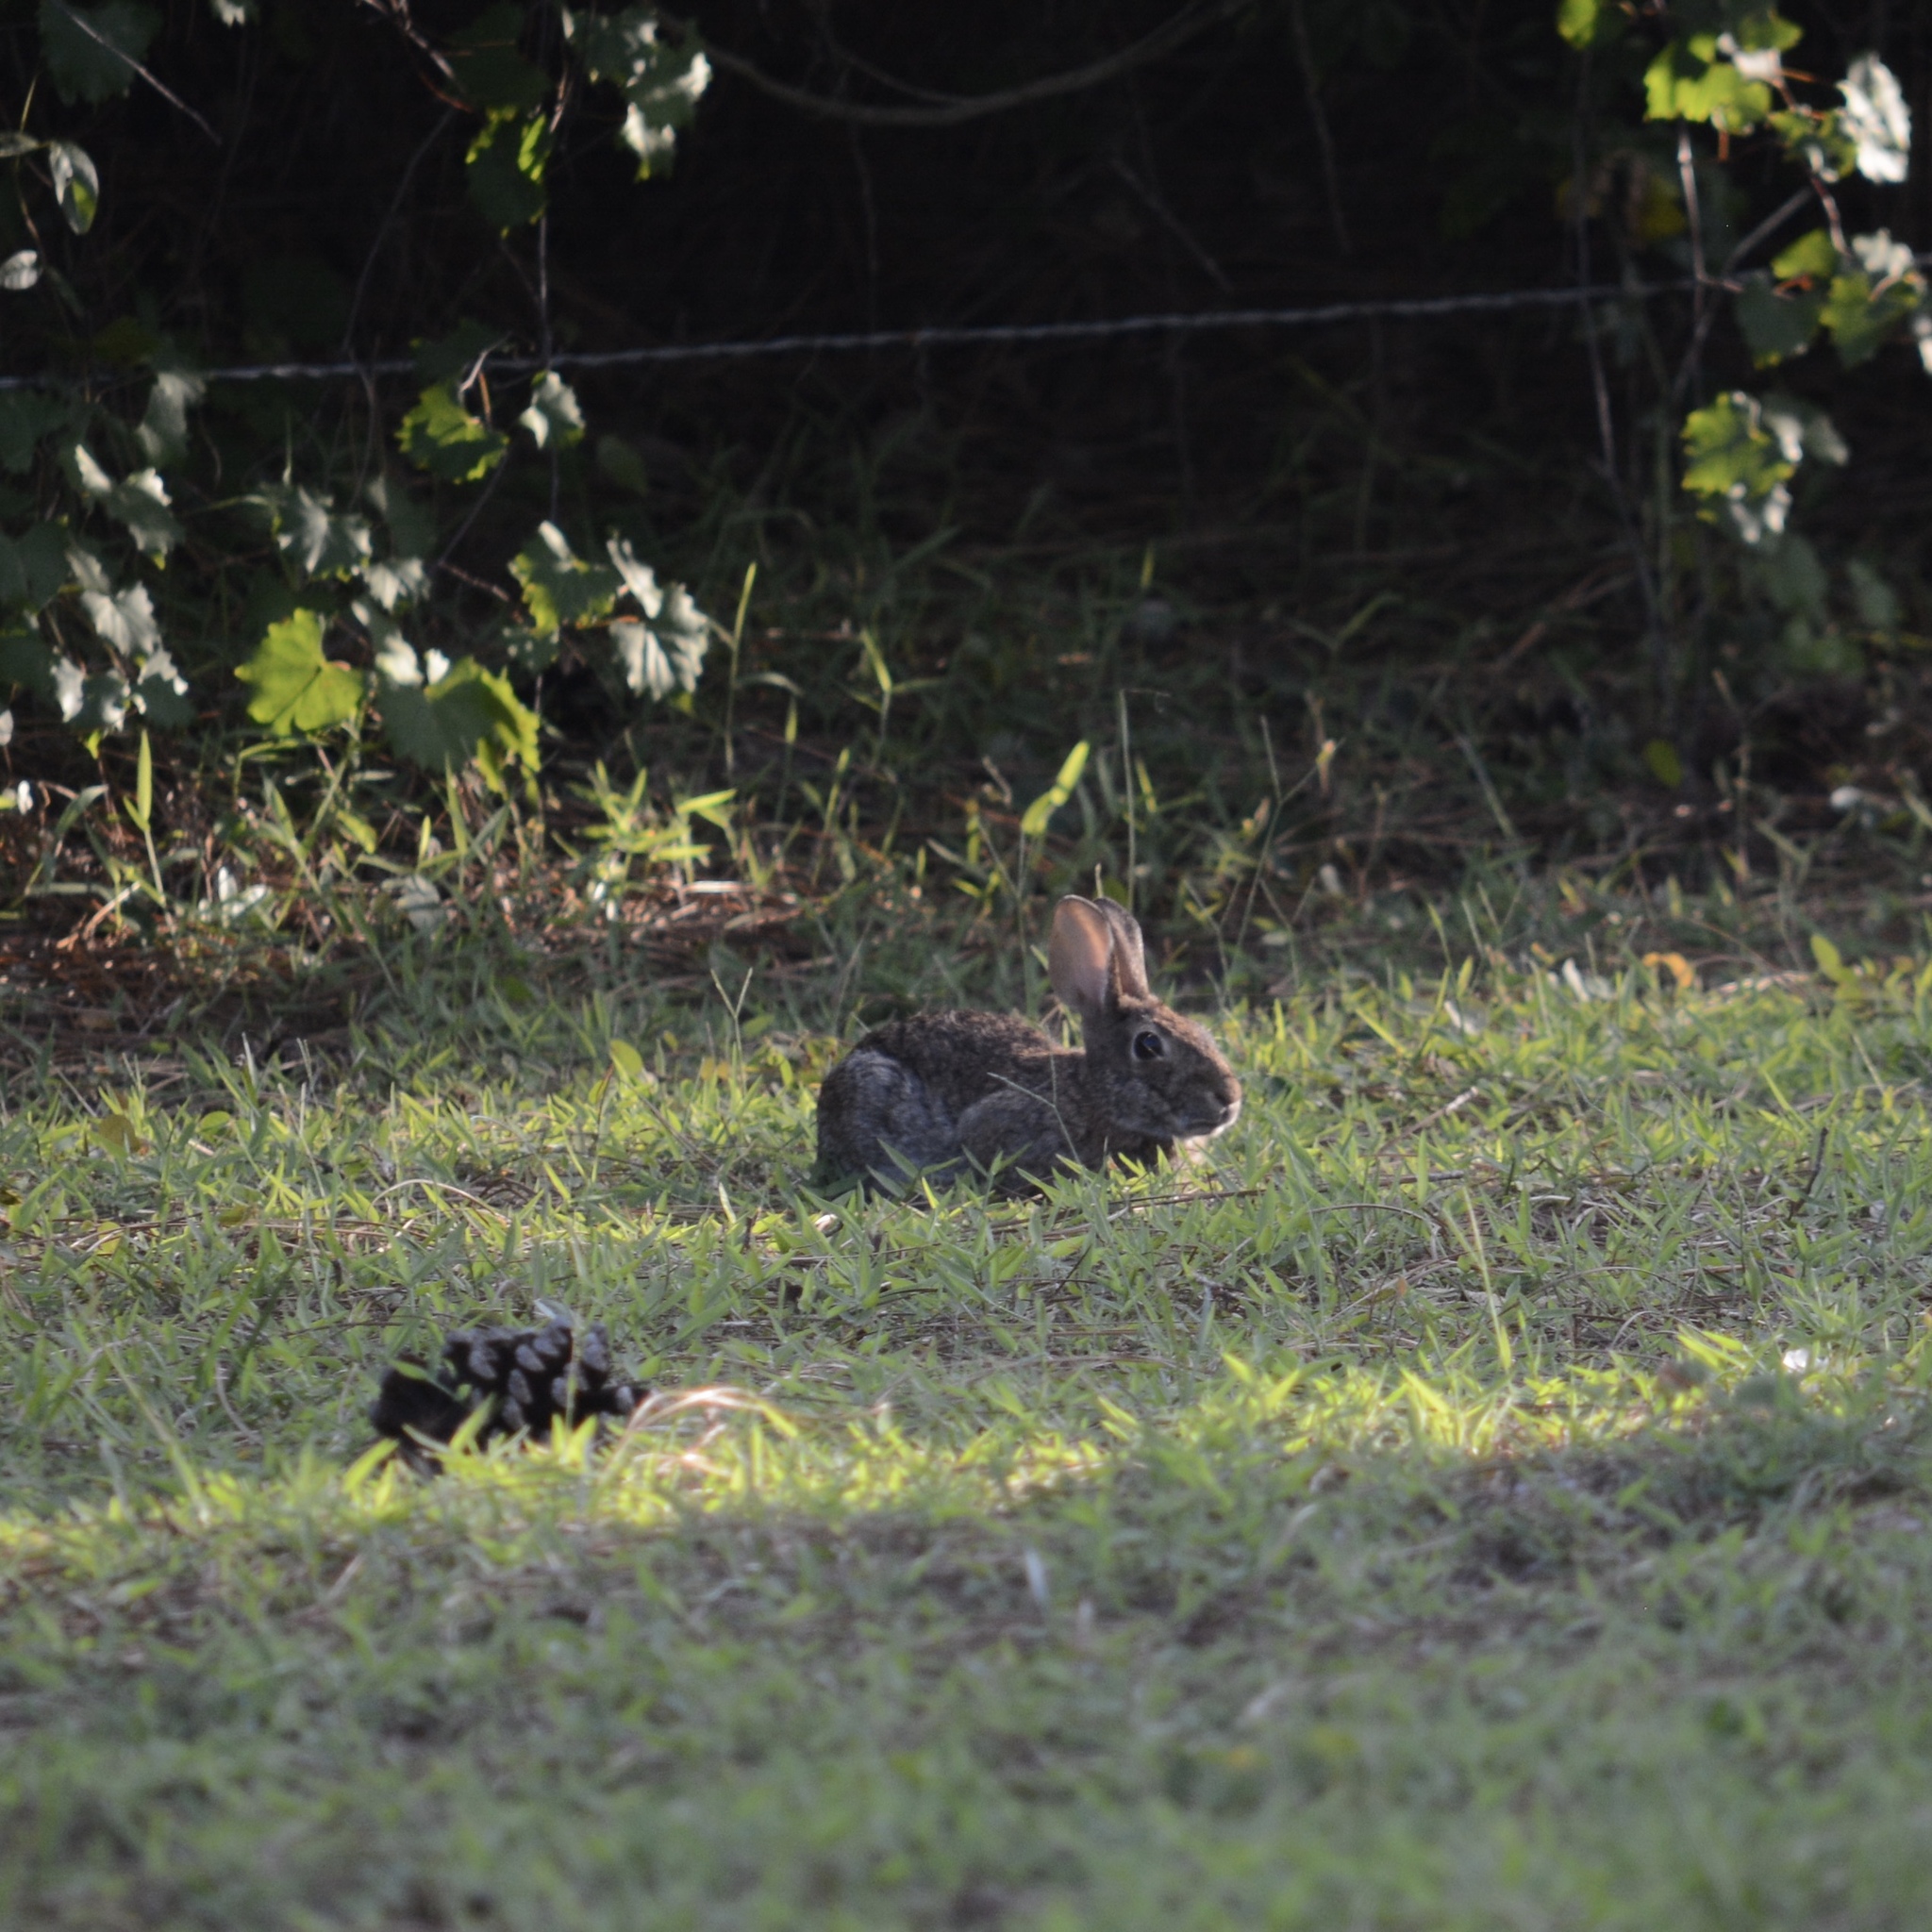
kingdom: Animalia
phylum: Chordata
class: Mammalia
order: Lagomorpha
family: Leporidae
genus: Sylvilagus
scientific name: Sylvilagus floridanus
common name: Eastern cottontail
